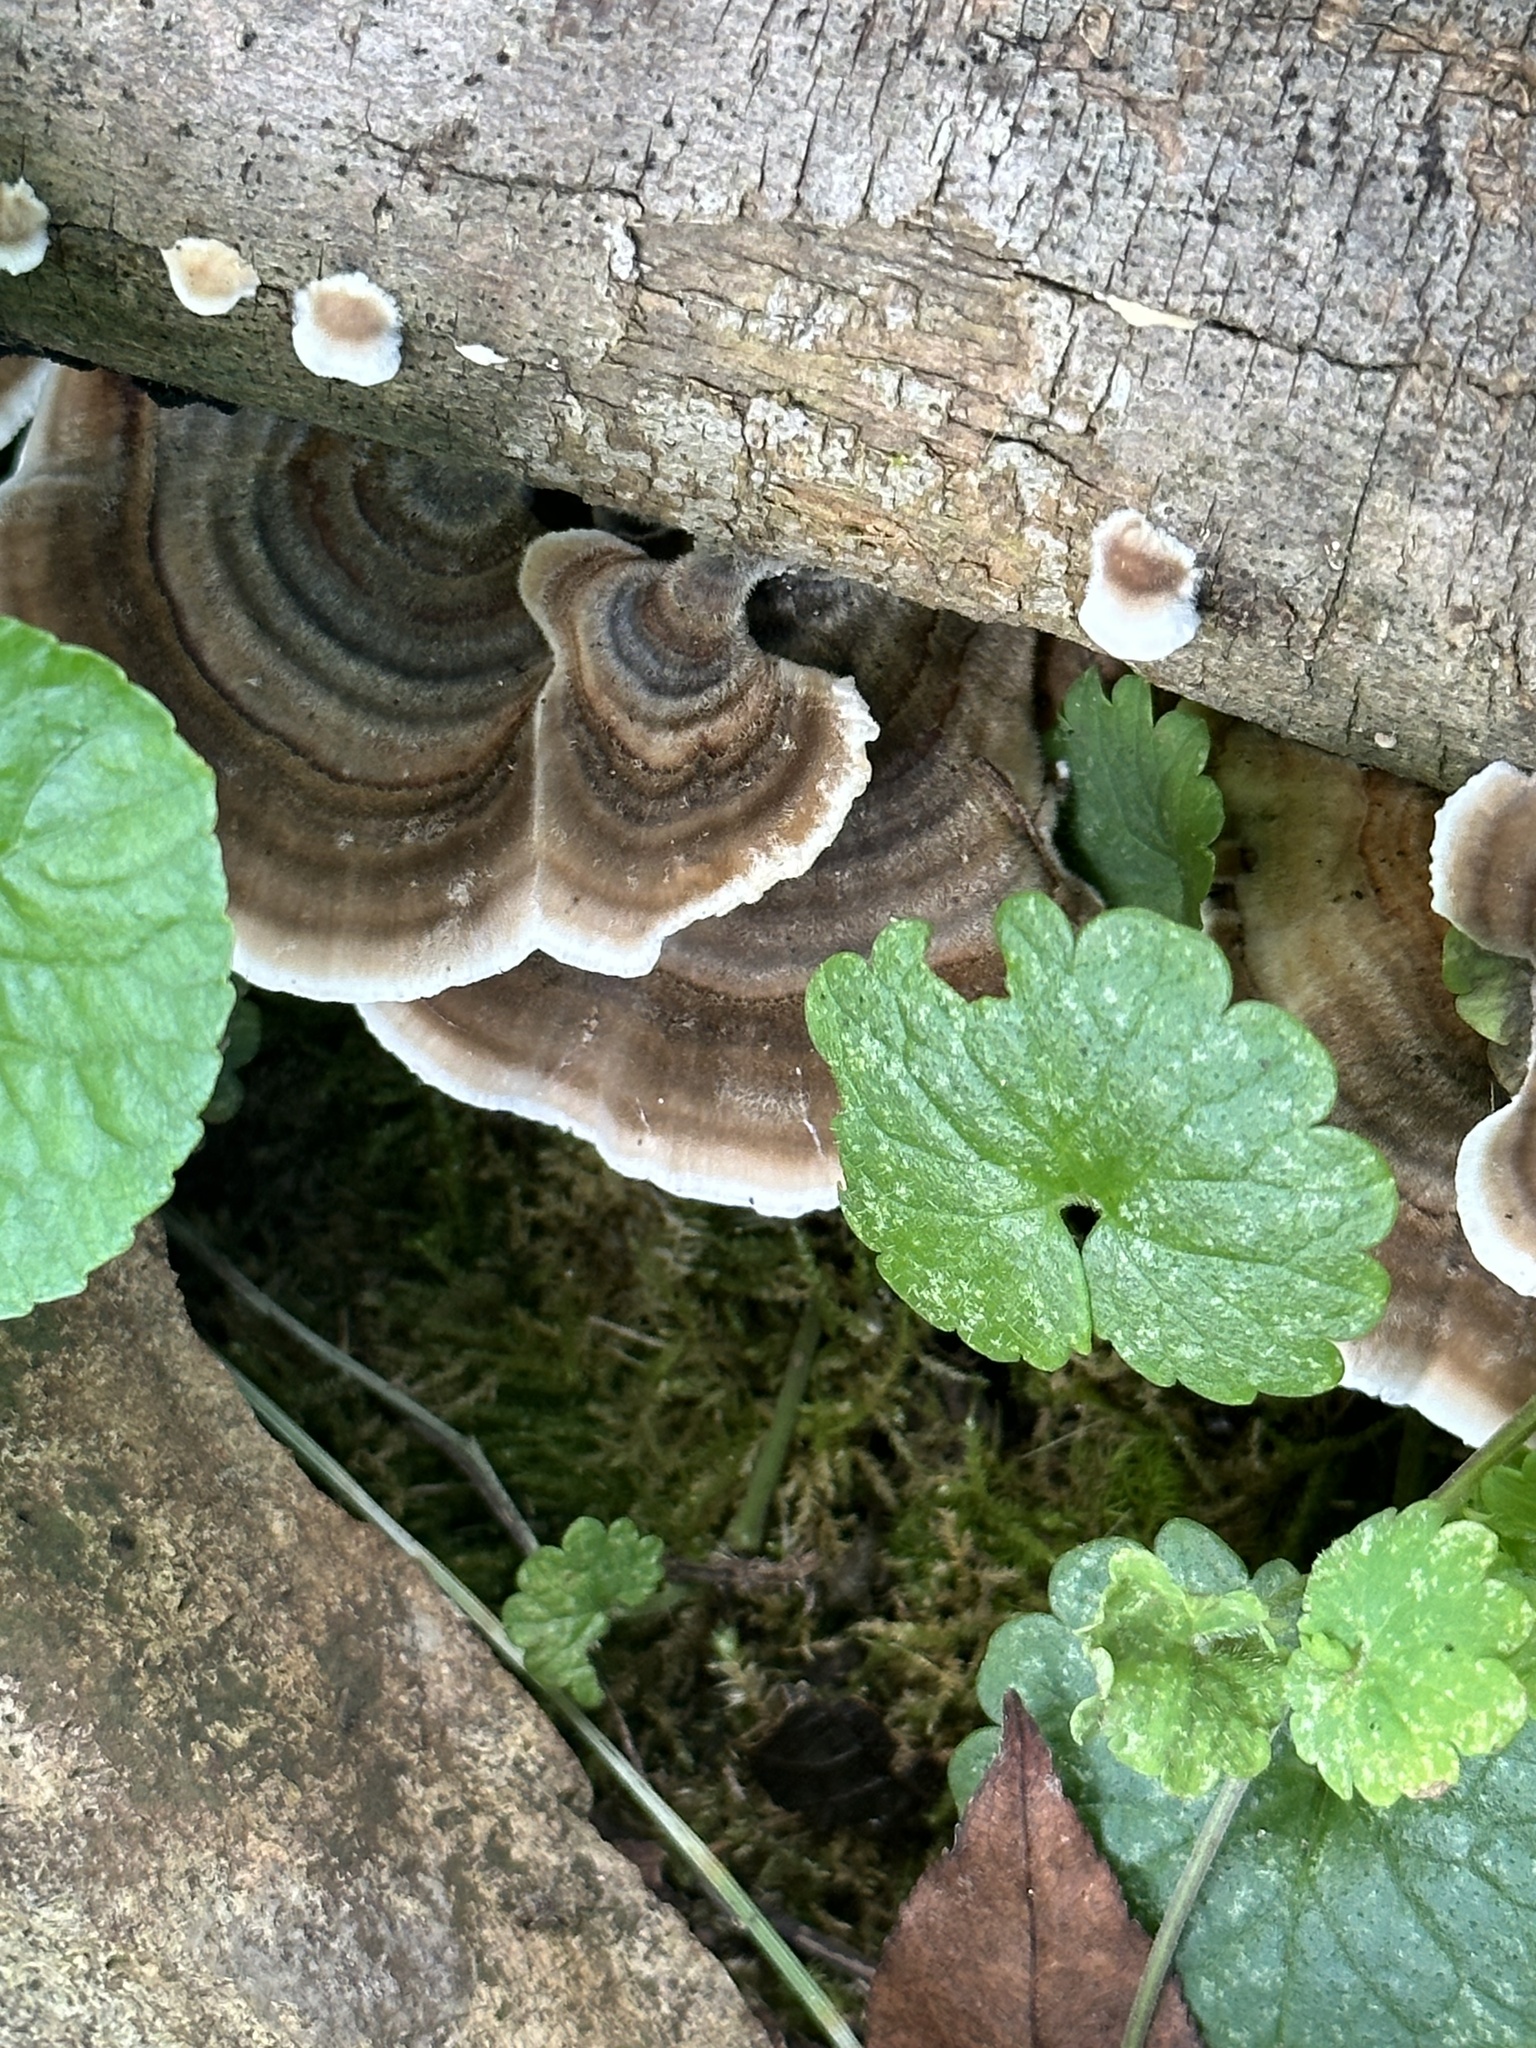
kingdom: Fungi
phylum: Basidiomycota
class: Agaricomycetes
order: Polyporales
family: Polyporaceae
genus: Trametes
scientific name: Trametes versicolor
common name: Turkeytail
